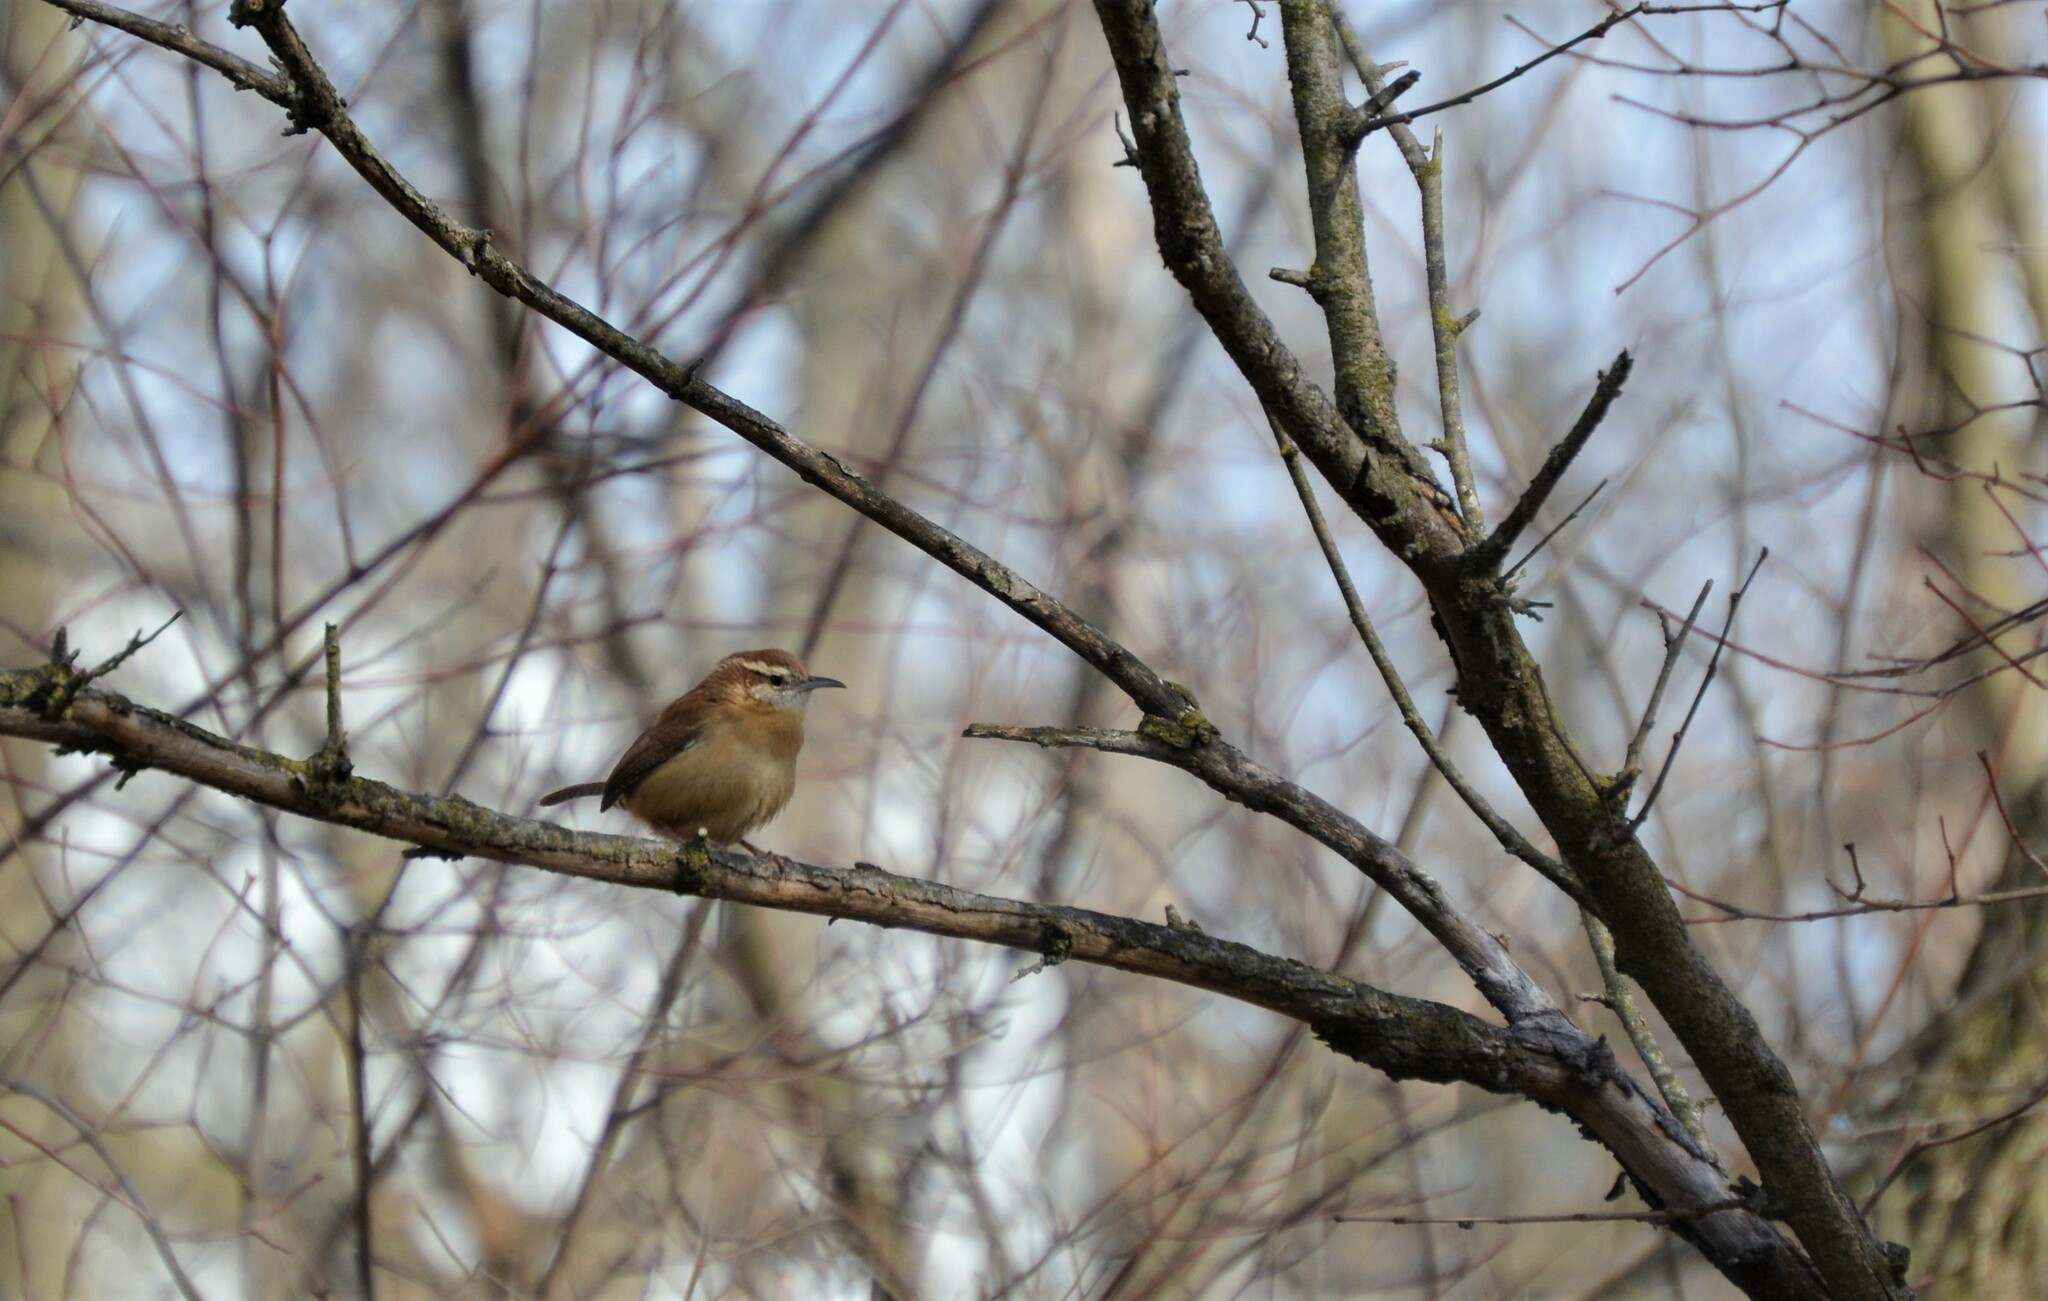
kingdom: Animalia
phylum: Chordata
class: Aves
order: Passeriformes
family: Troglodytidae
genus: Thryothorus
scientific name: Thryothorus ludovicianus
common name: Carolina wren
